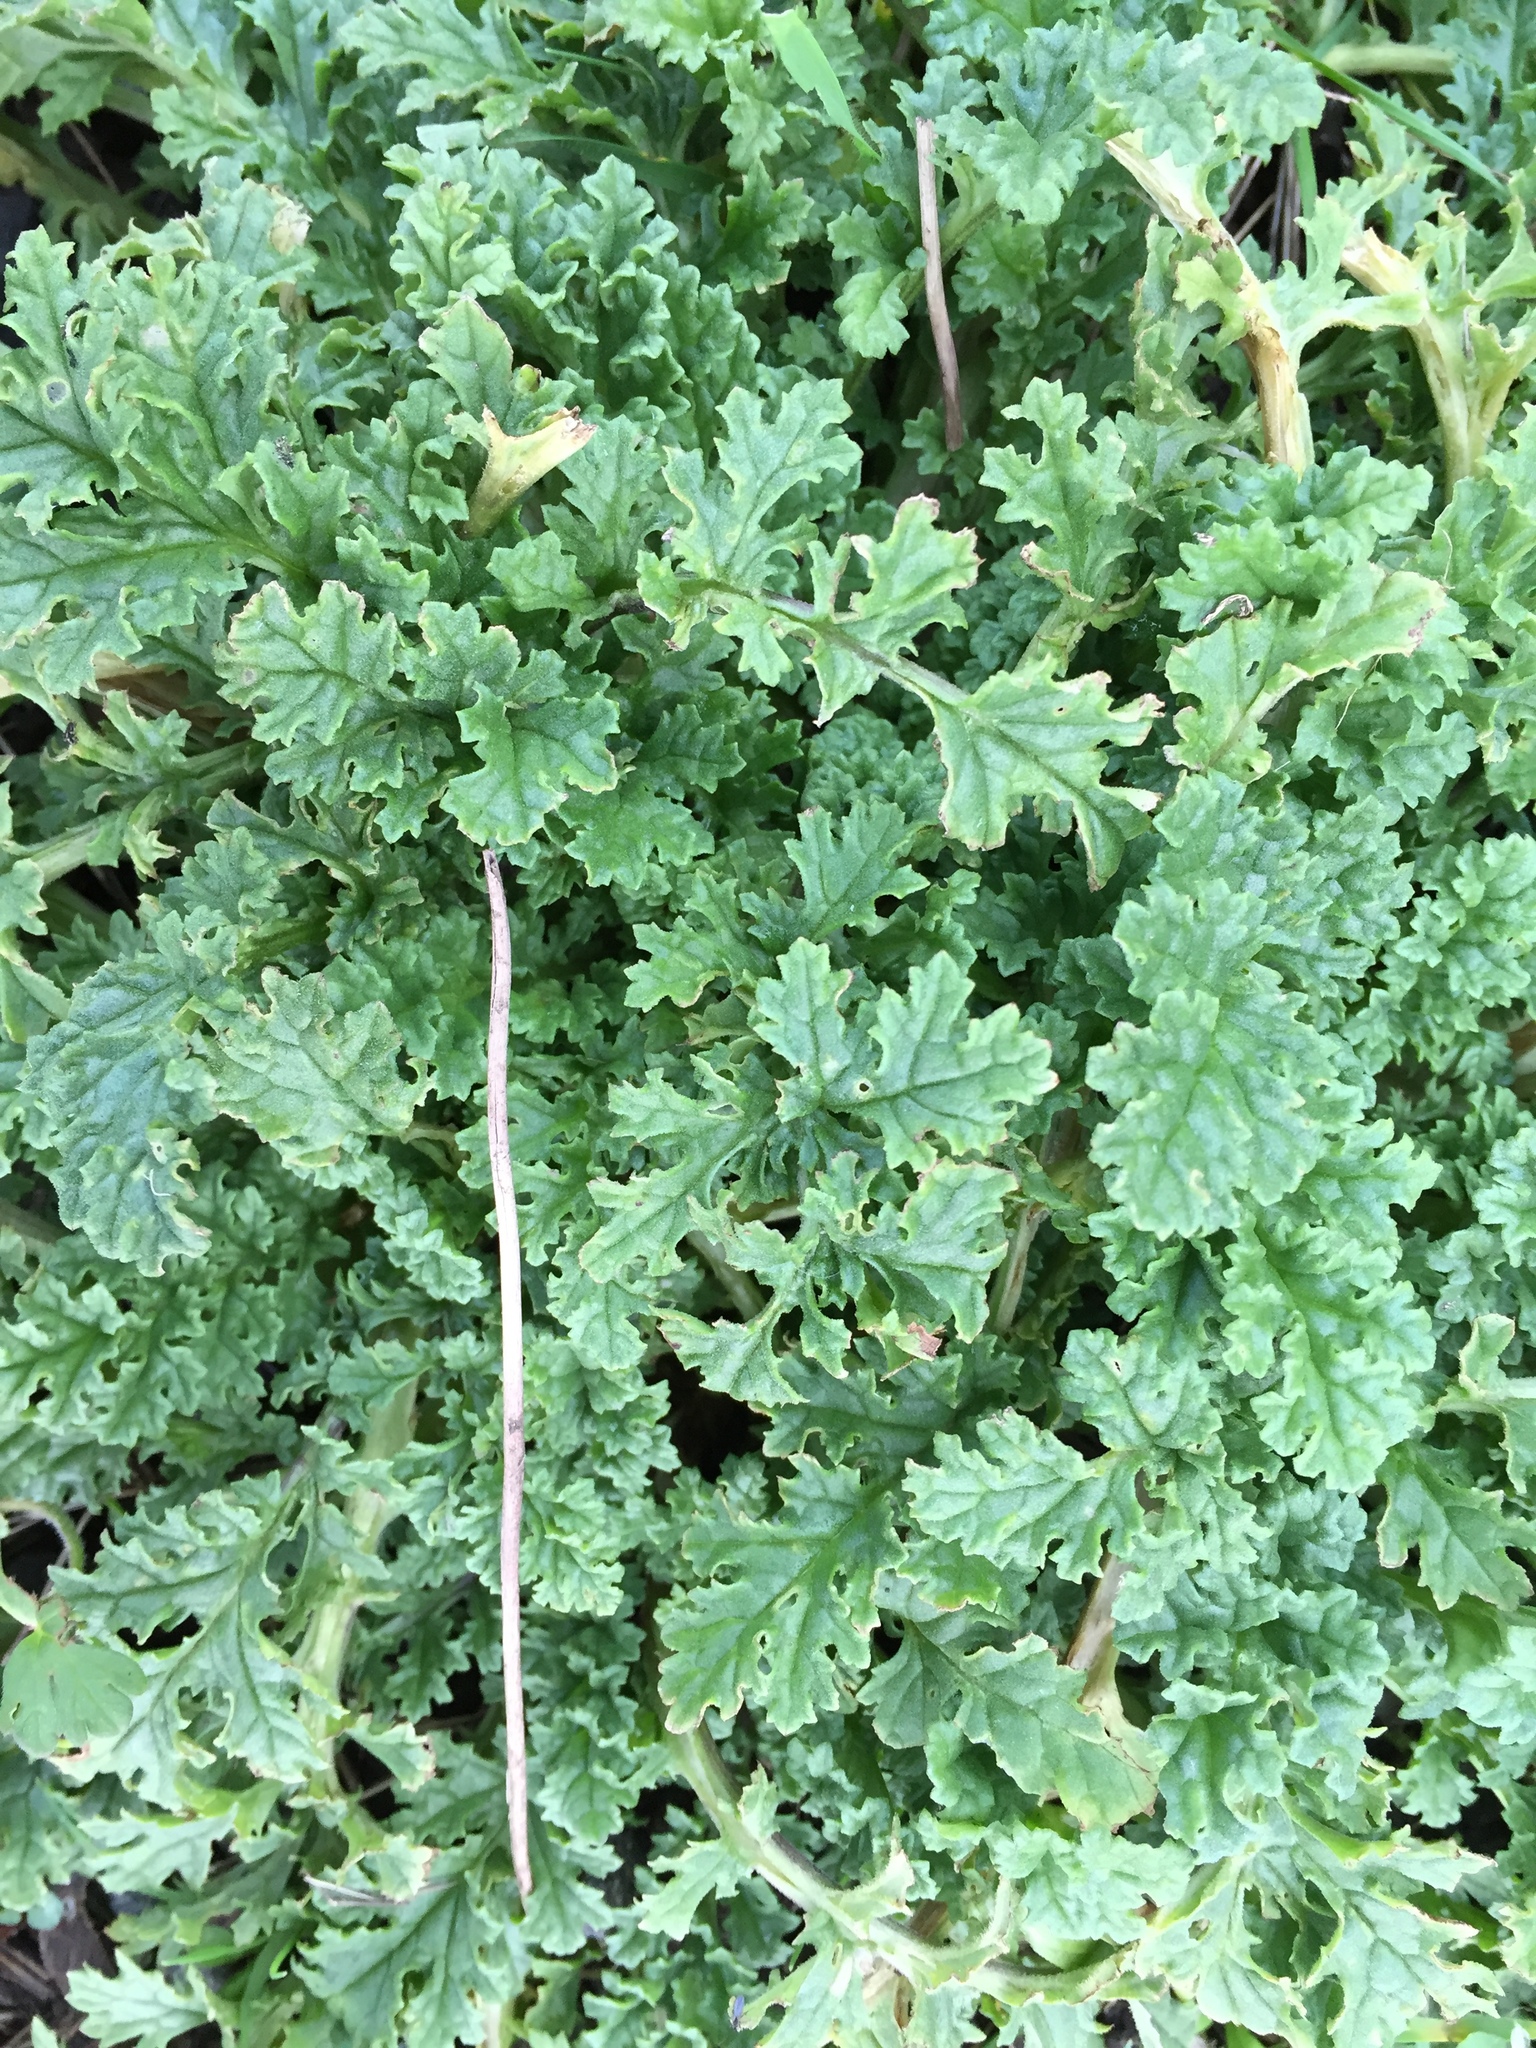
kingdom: Plantae
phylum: Tracheophyta
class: Magnoliopsida
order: Asterales
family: Asteraceae
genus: Jacobaea
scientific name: Jacobaea vulgaris
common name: Stinking willie
